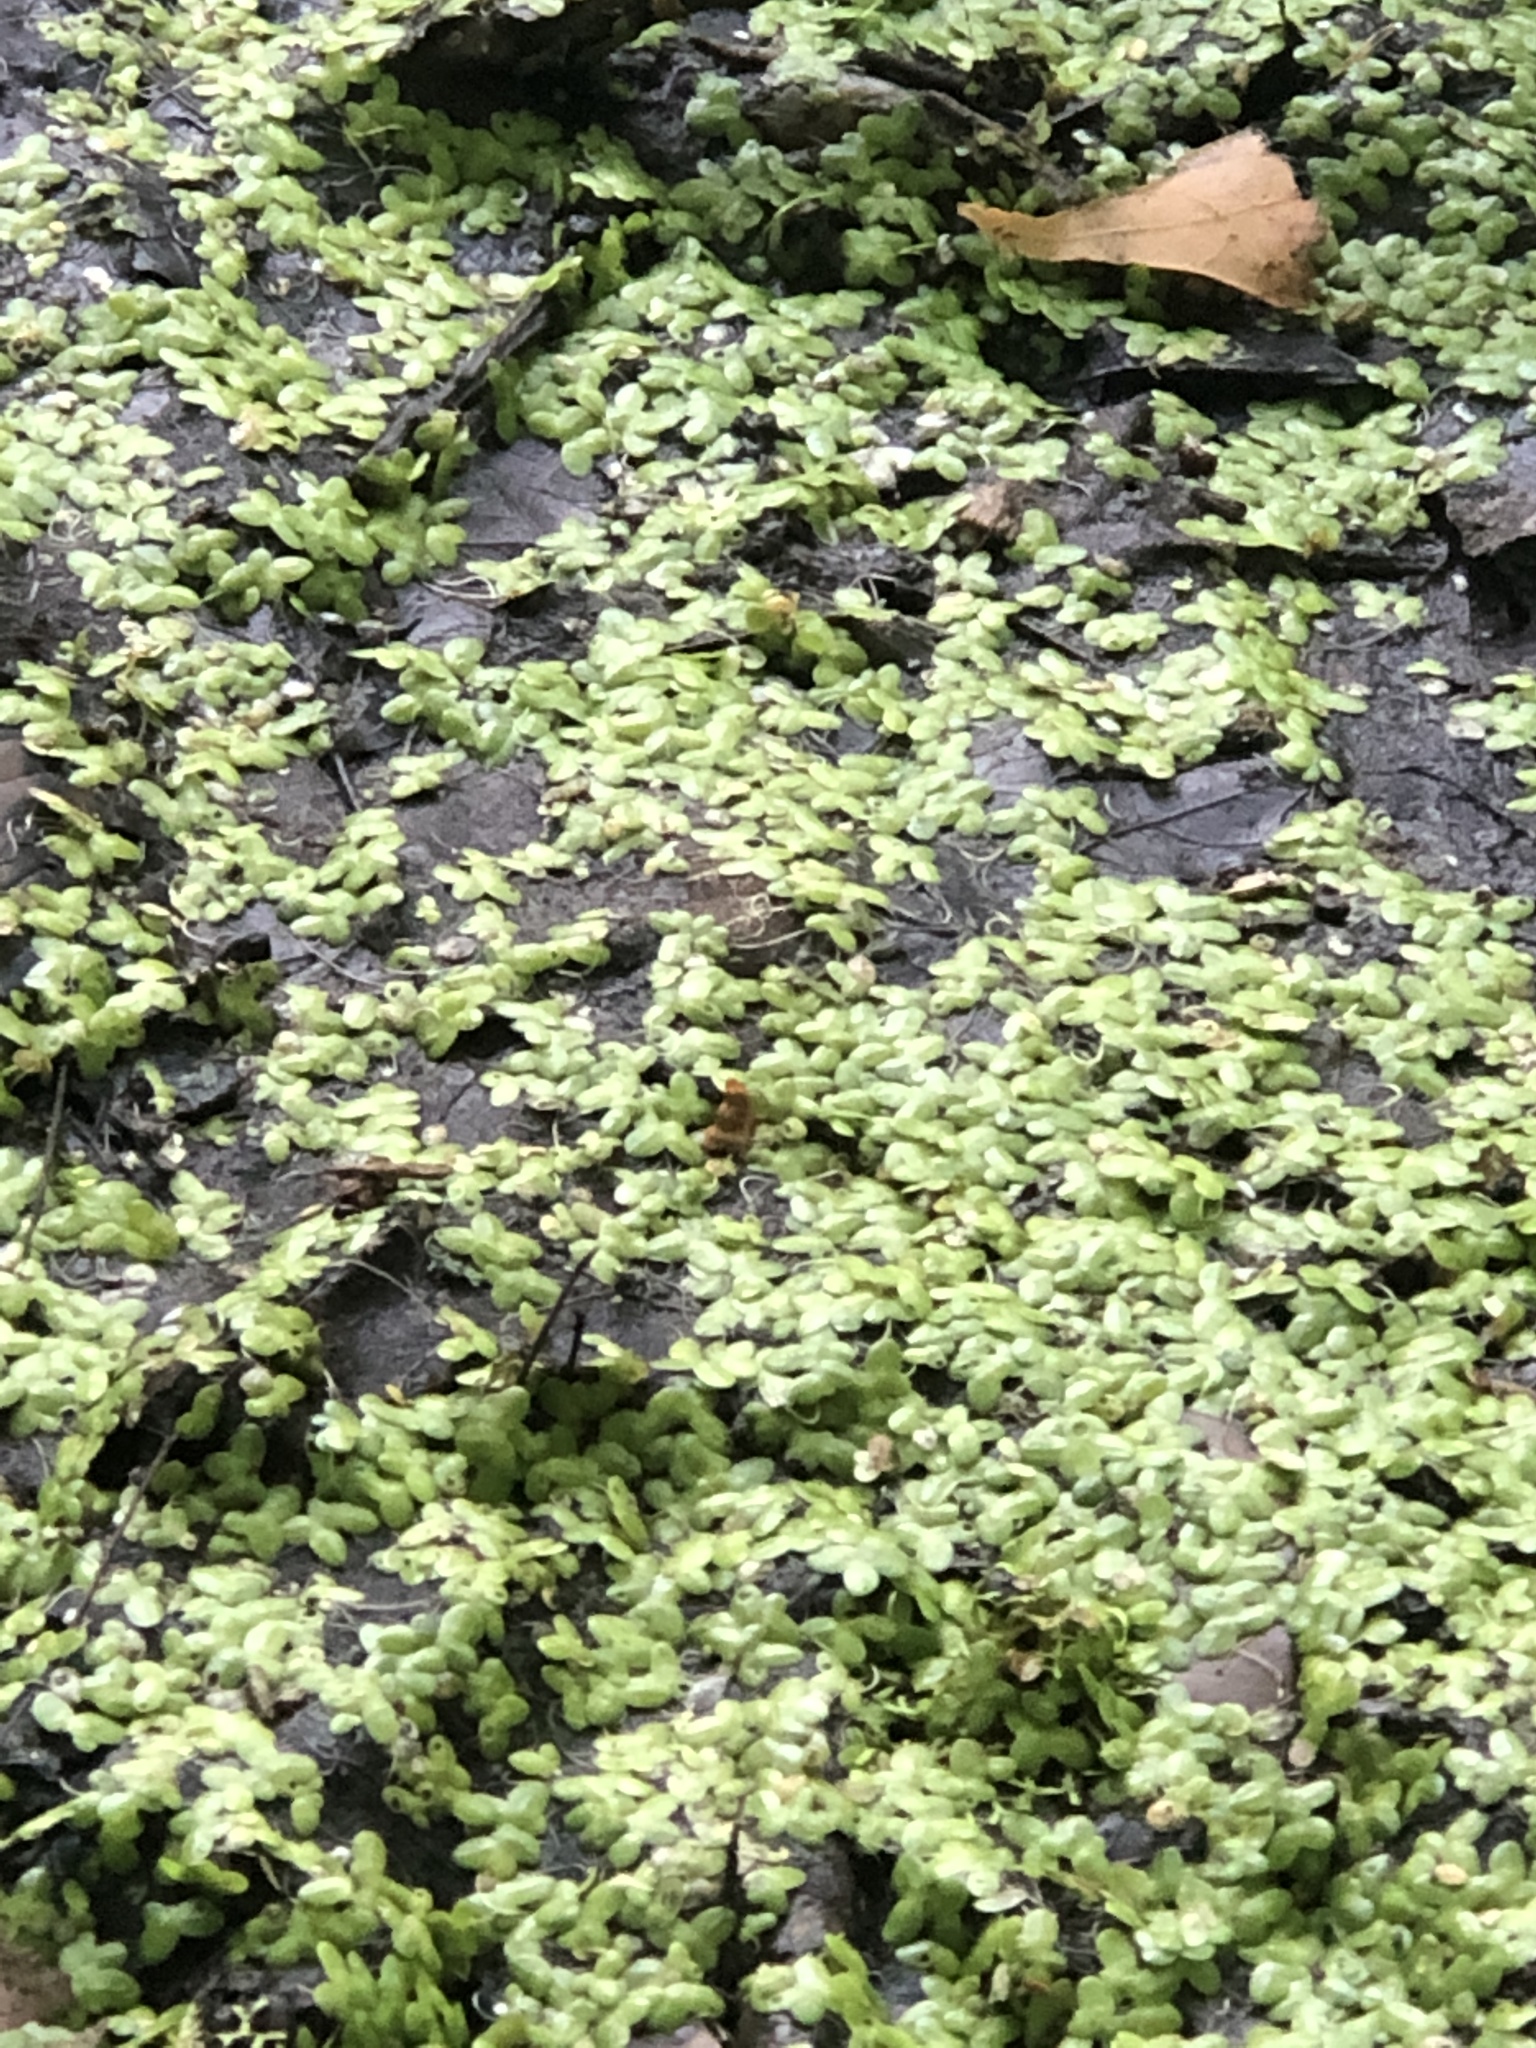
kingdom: Plantae
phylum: Tracheophyta
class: Liliopsida
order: Alismatales
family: Araceae
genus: Lemna
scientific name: Lemna minor
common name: Common duckweed
